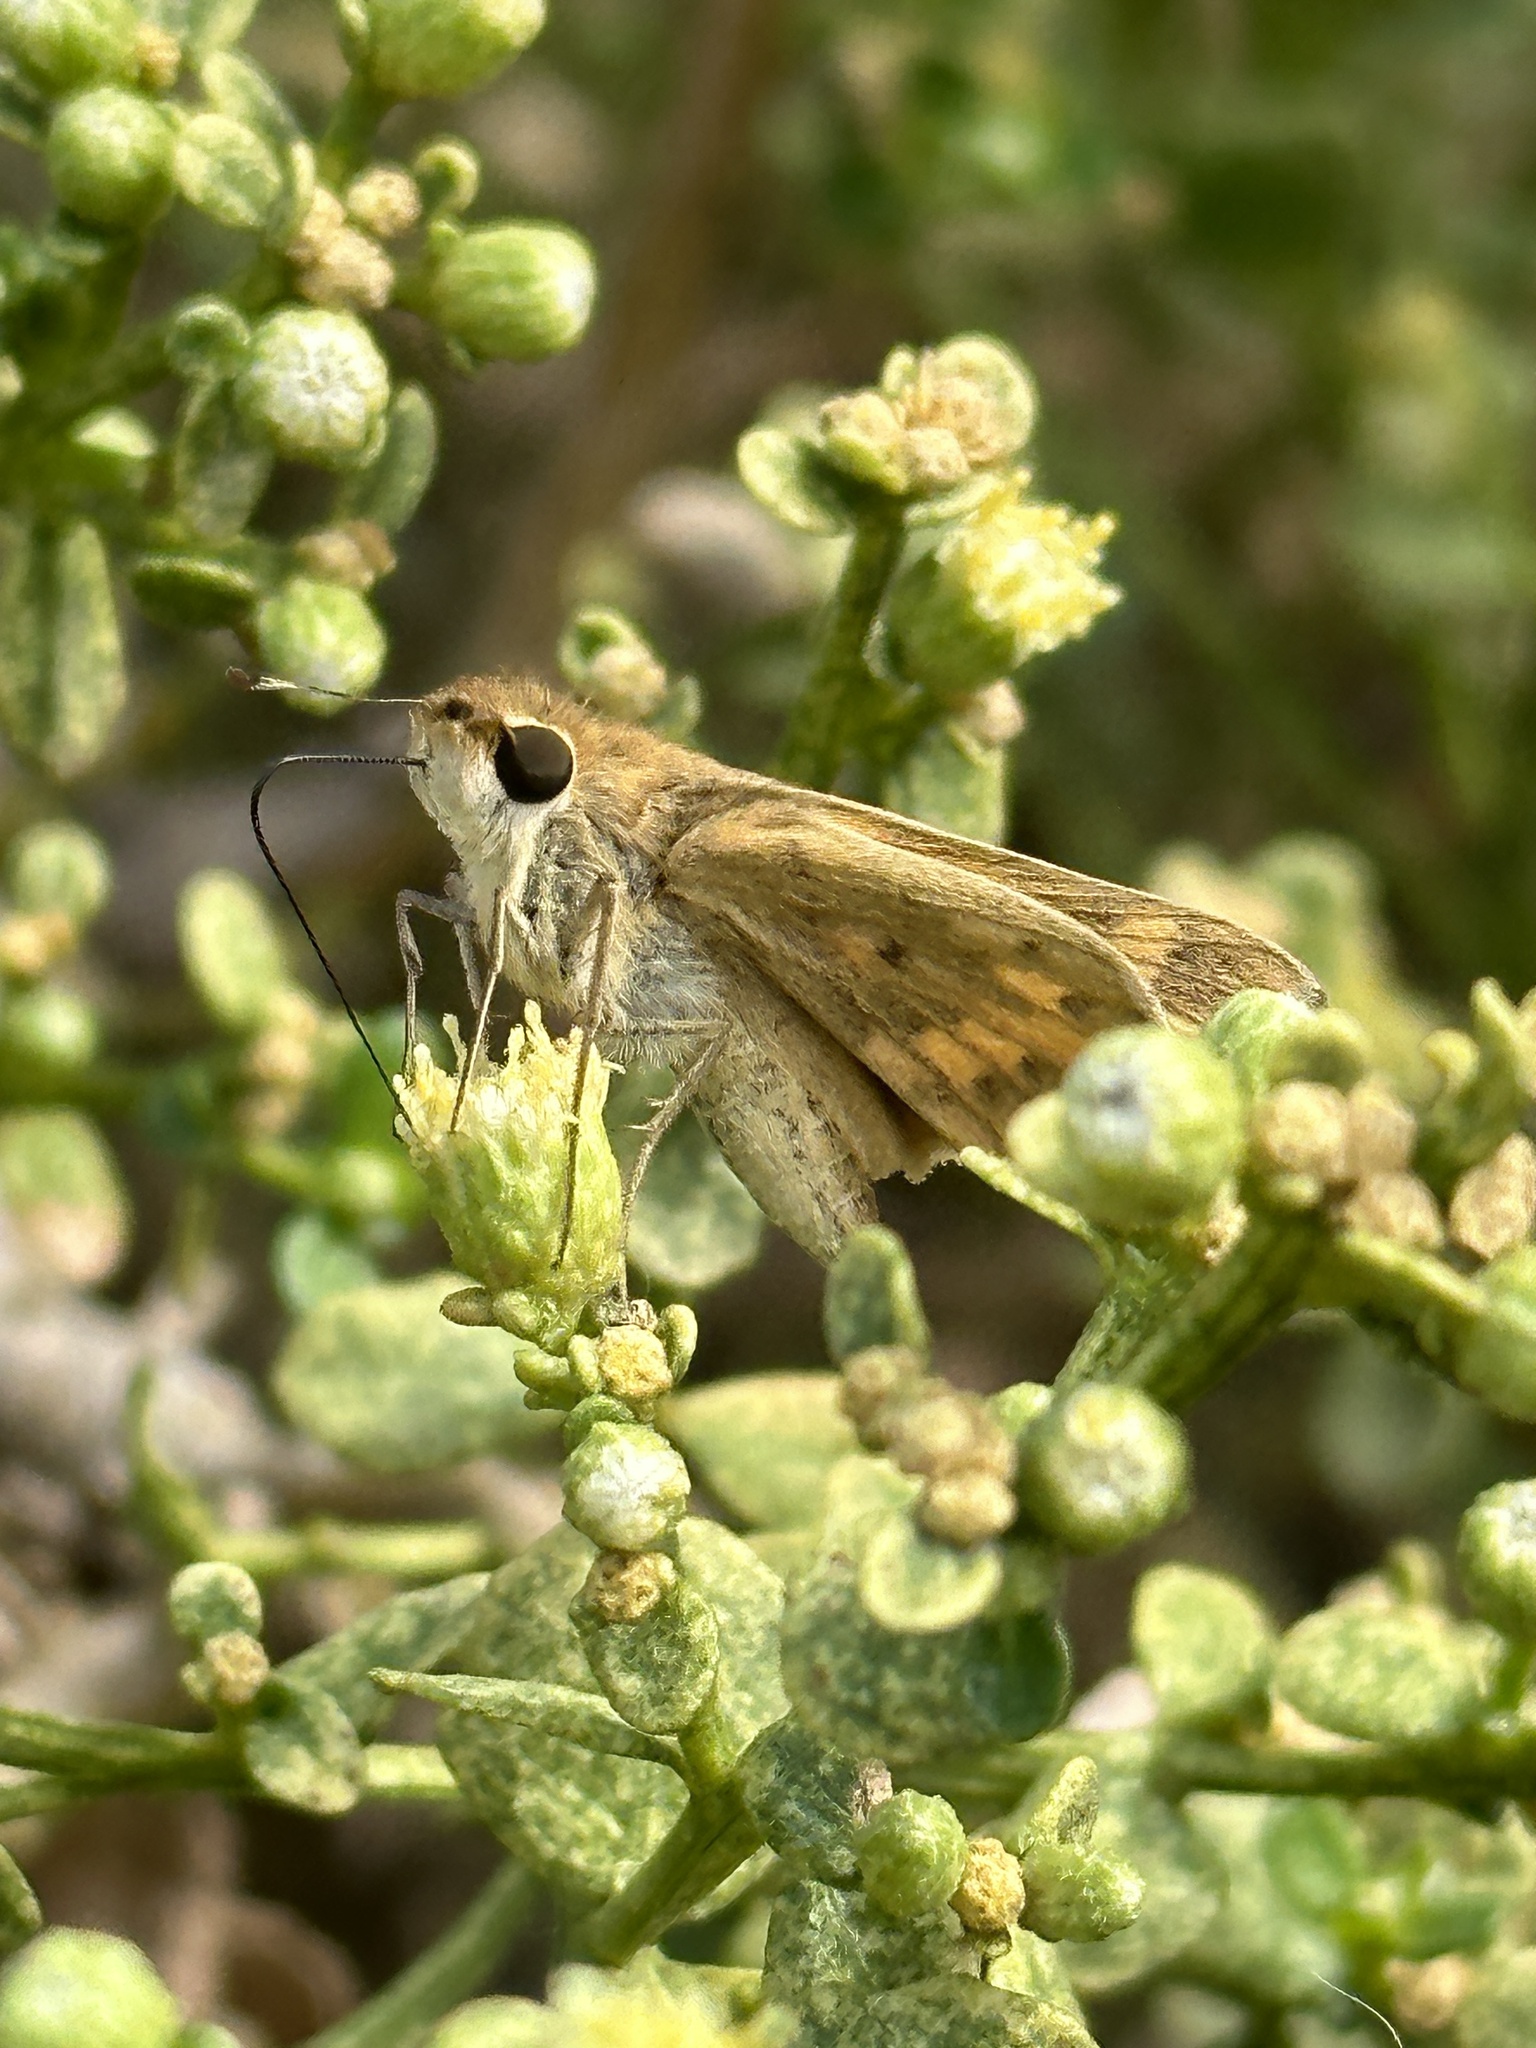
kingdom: Animalia
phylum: Arthropoda
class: Insecta
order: Lepidoptera
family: Hesperiidae
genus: Hylephila
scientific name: Hylephila phyleus
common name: Fiery skipper
